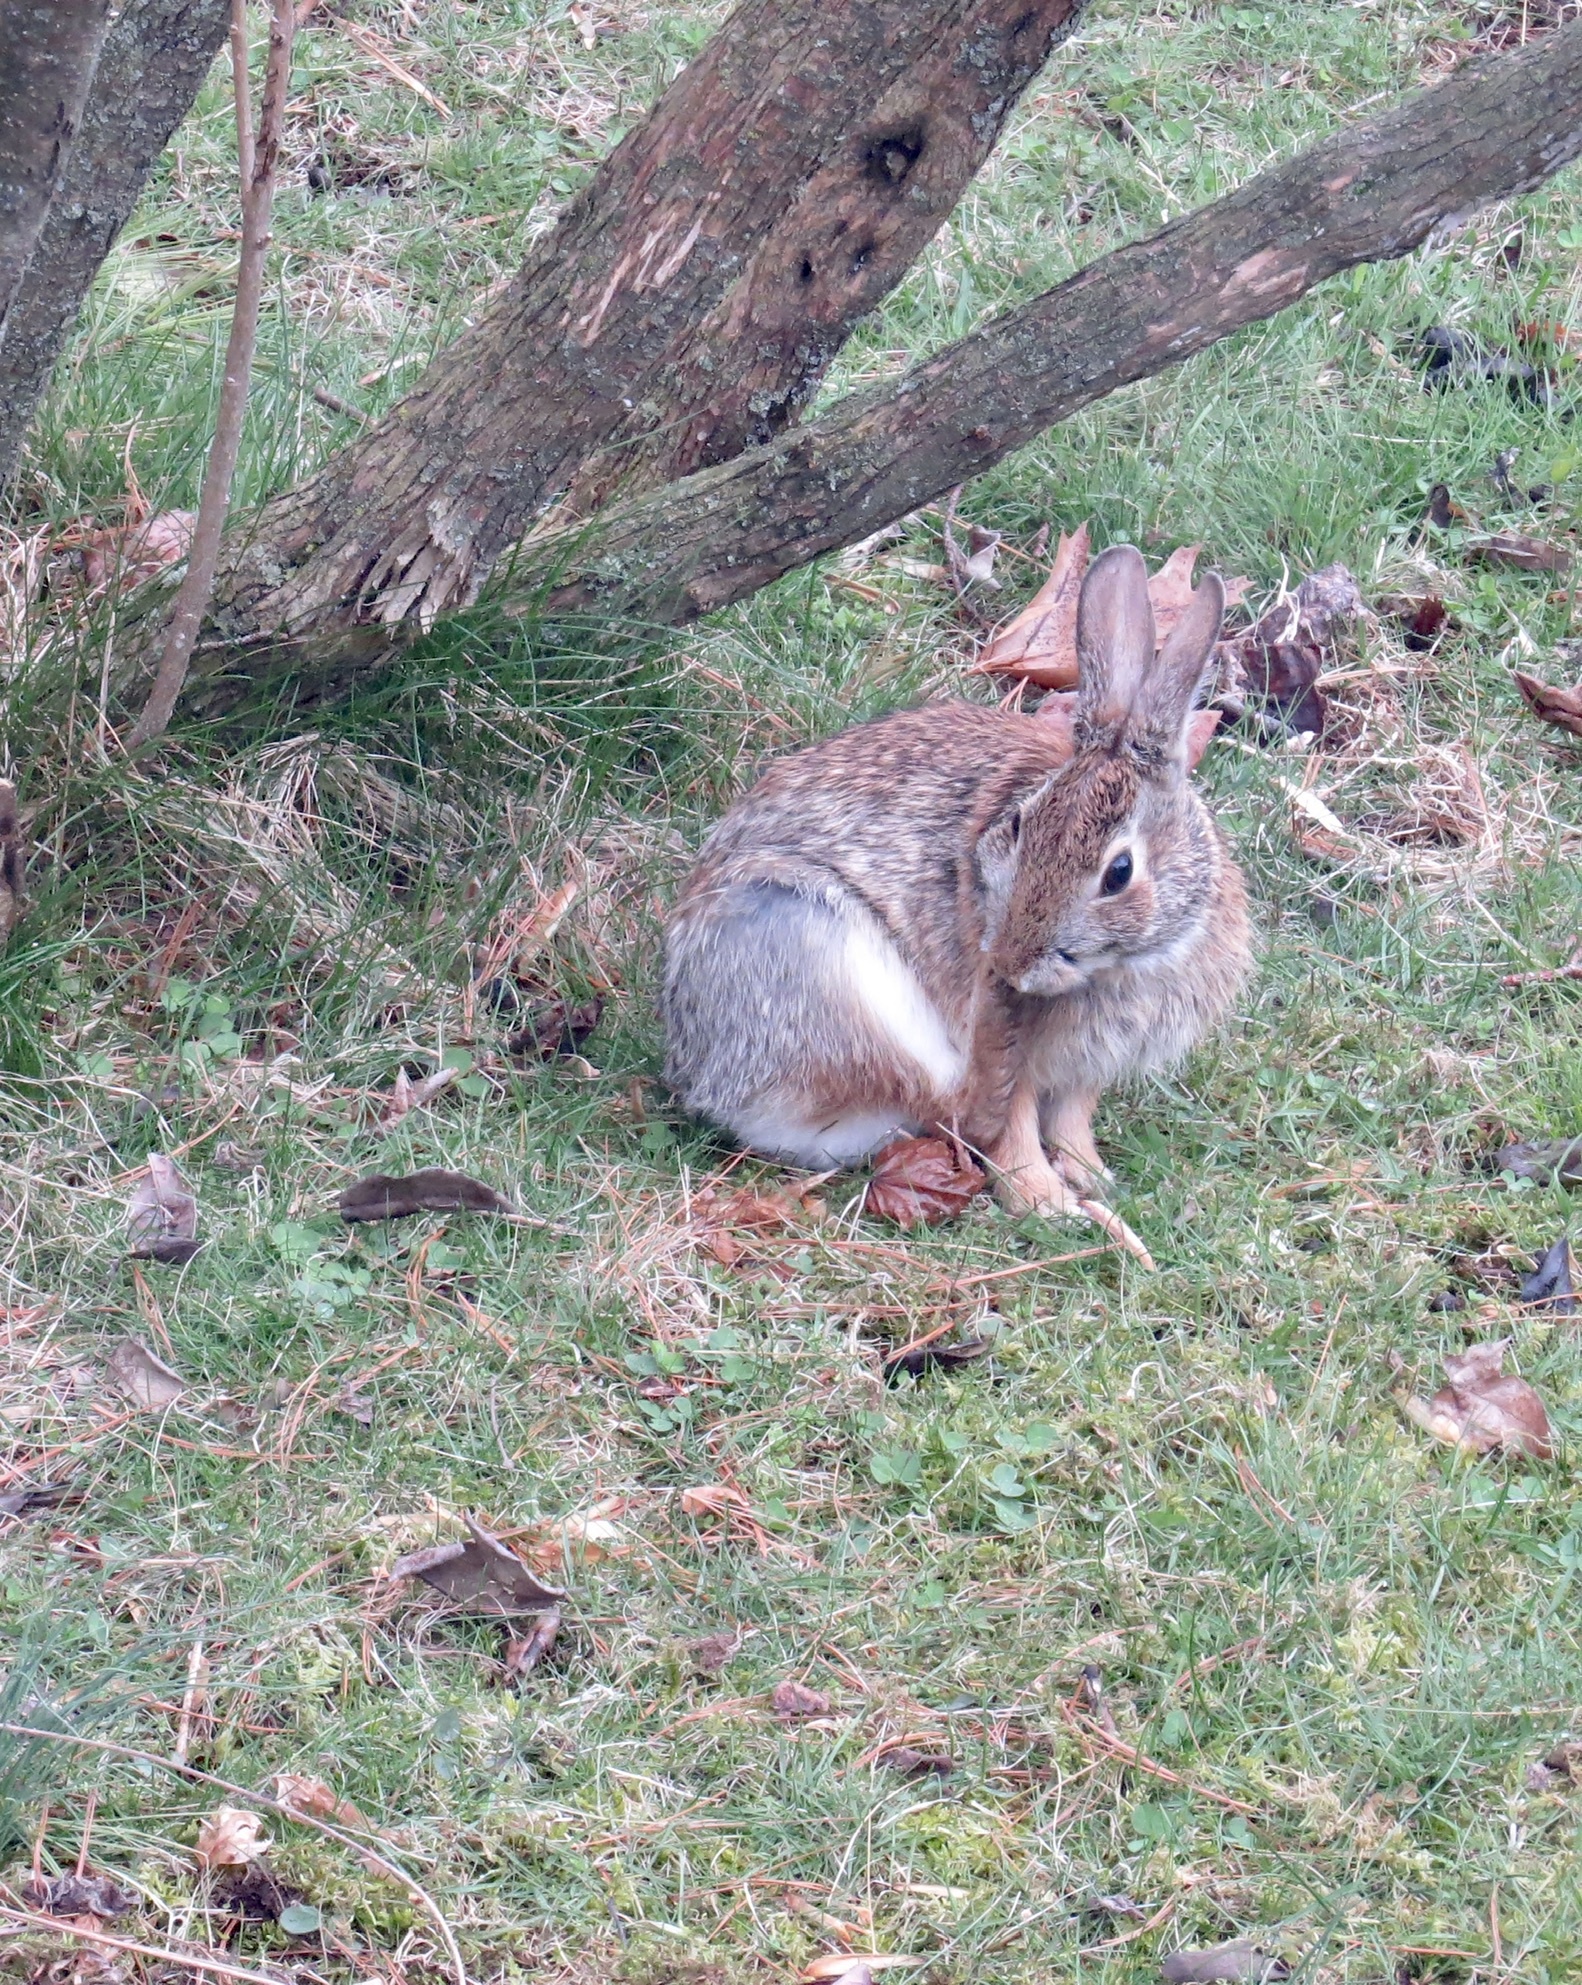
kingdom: Animalia
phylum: Chordata
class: Mammalia
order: Lagomorpha
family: Leporidae
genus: Sylvilagus
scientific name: Sylvilagus floridanus
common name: Eastern cottontail
